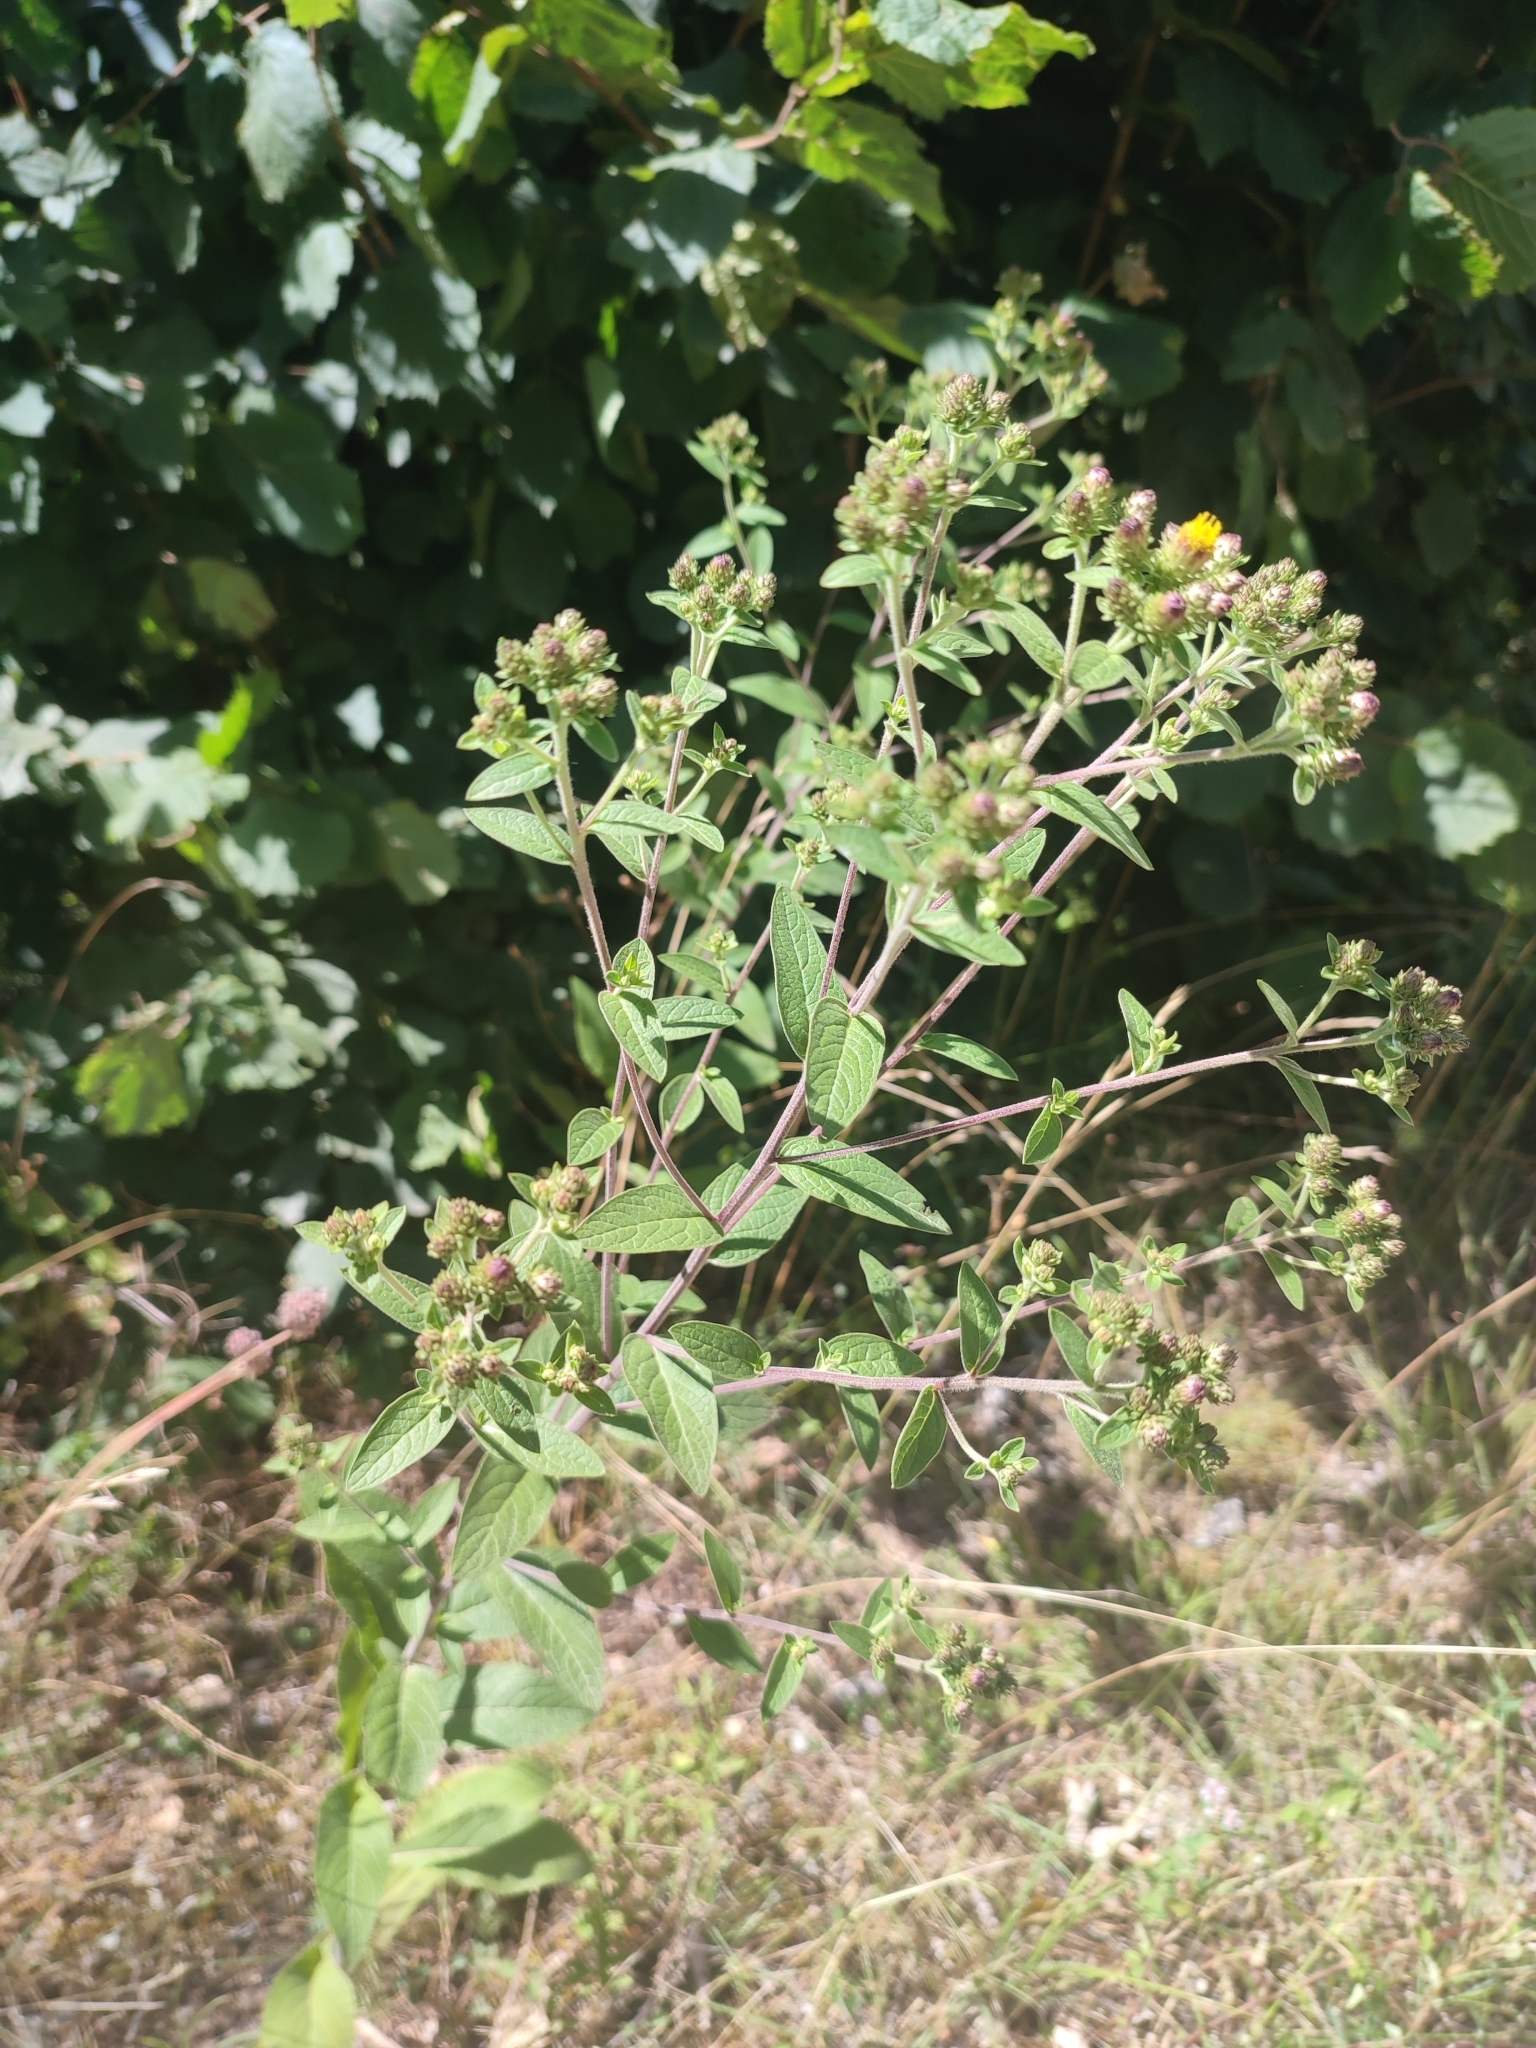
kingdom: Plantae
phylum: Tracheophyta
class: Magnoliopsida
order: Asterales
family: Asteraceae
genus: Pentanema
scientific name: Pentanema squarrosum
